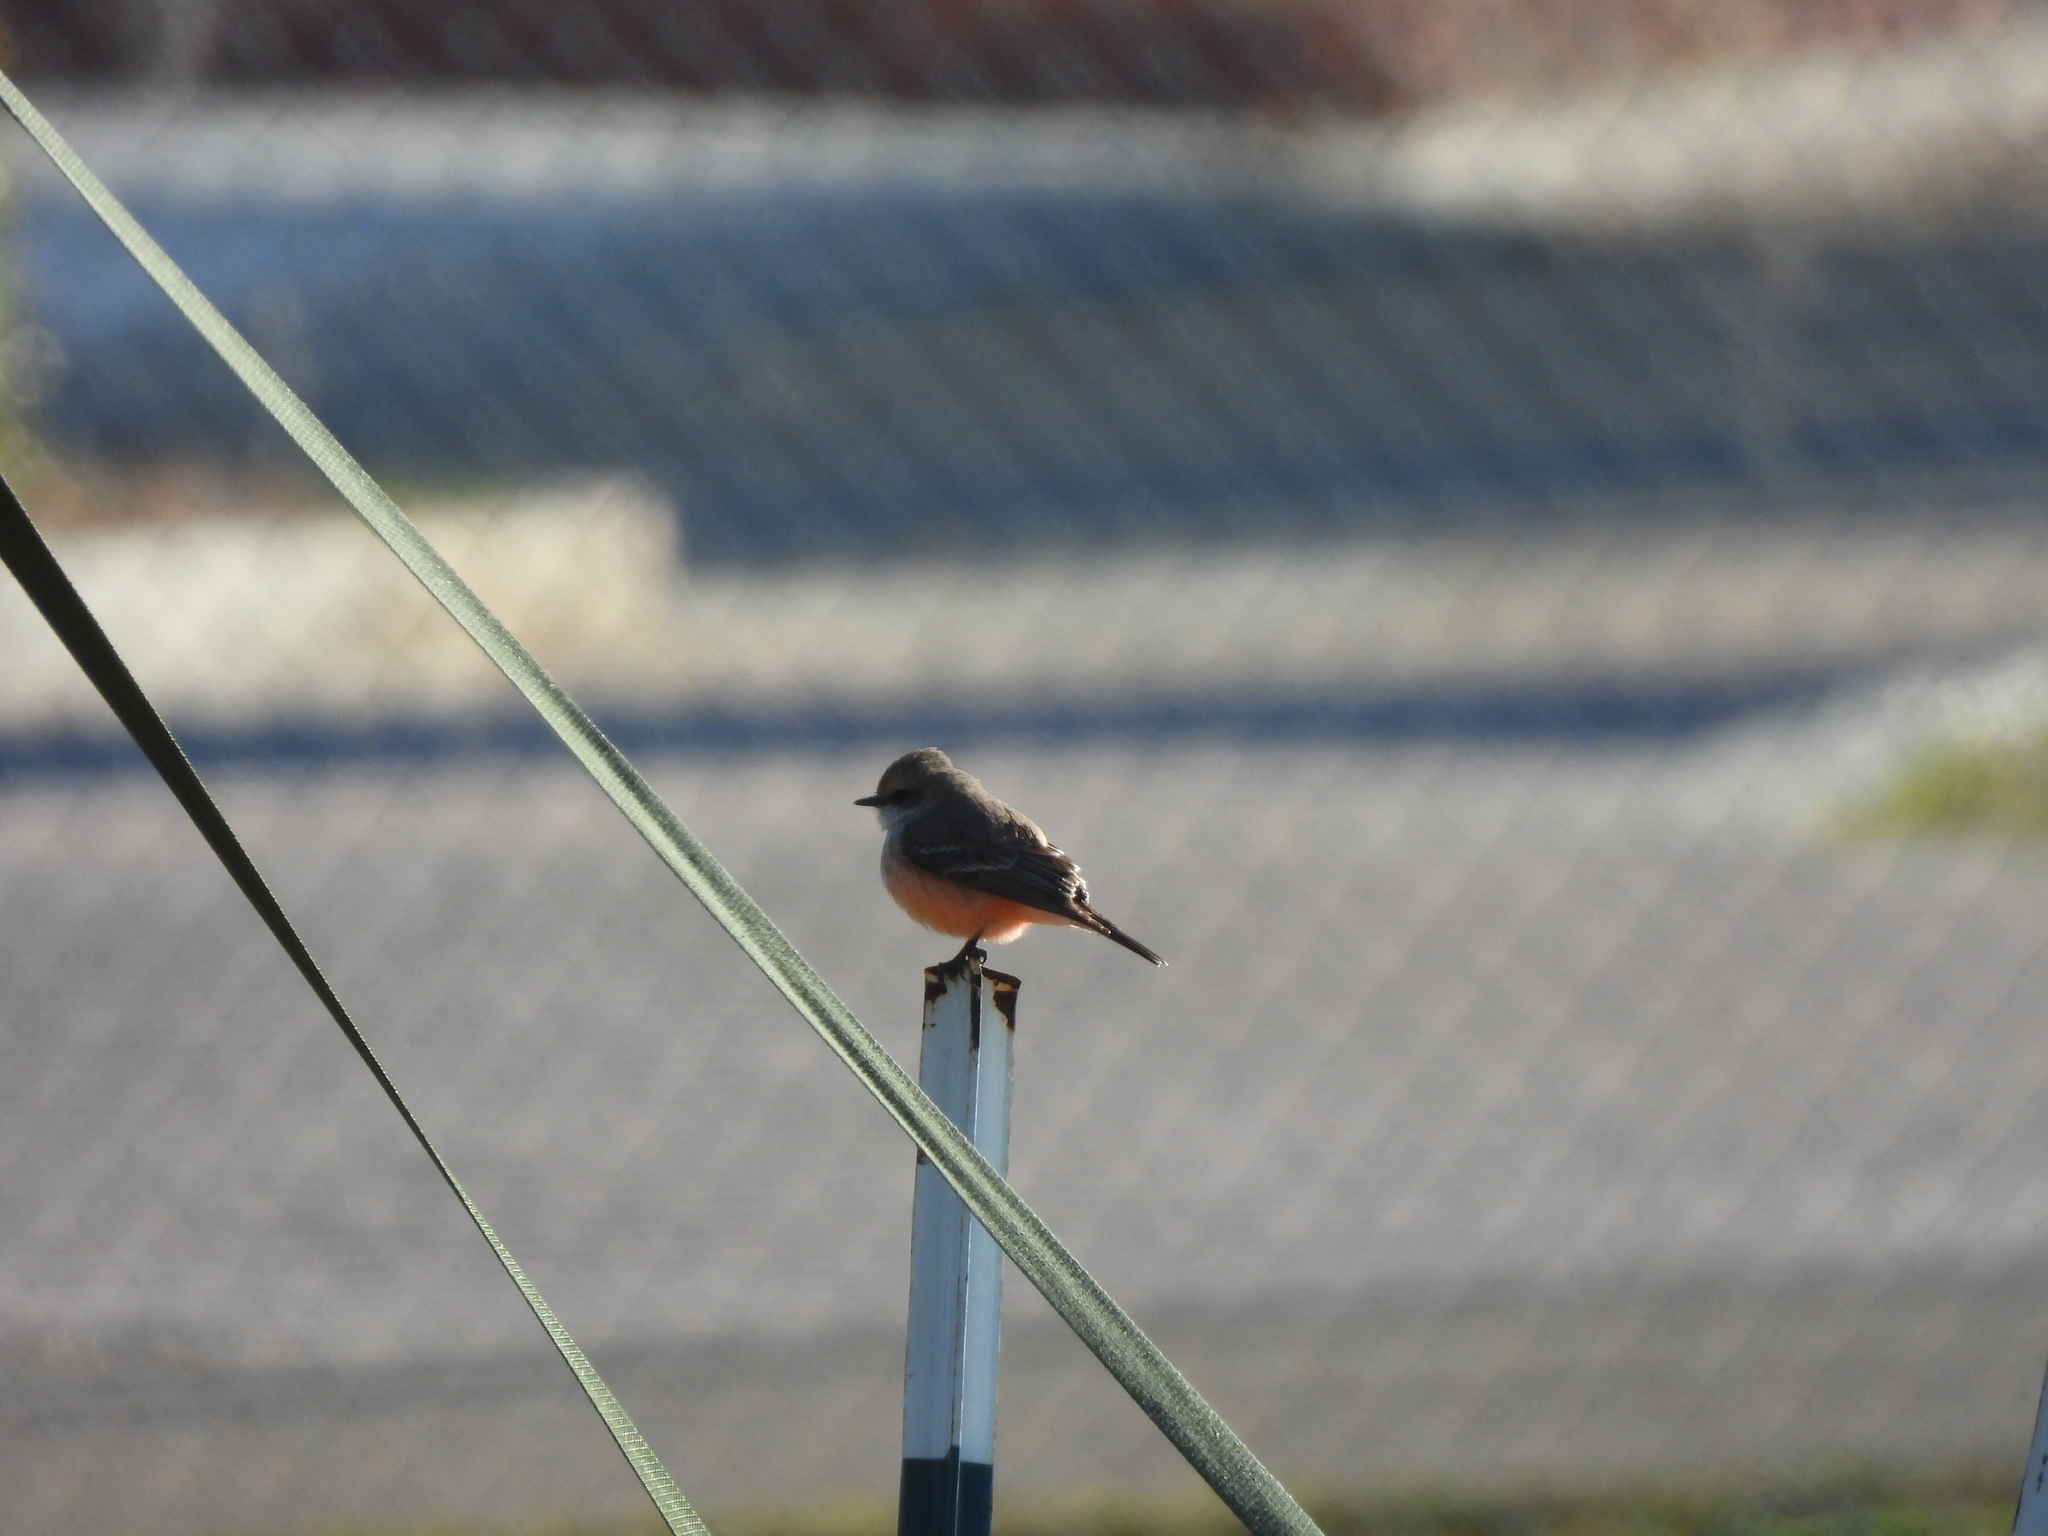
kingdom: Animalia
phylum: Chordata
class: Aves
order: Passeriformes
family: Tyrannidae
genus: Pyrocephalus
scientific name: Pyrocephalus rubinus
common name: Vermilion flycatcher
